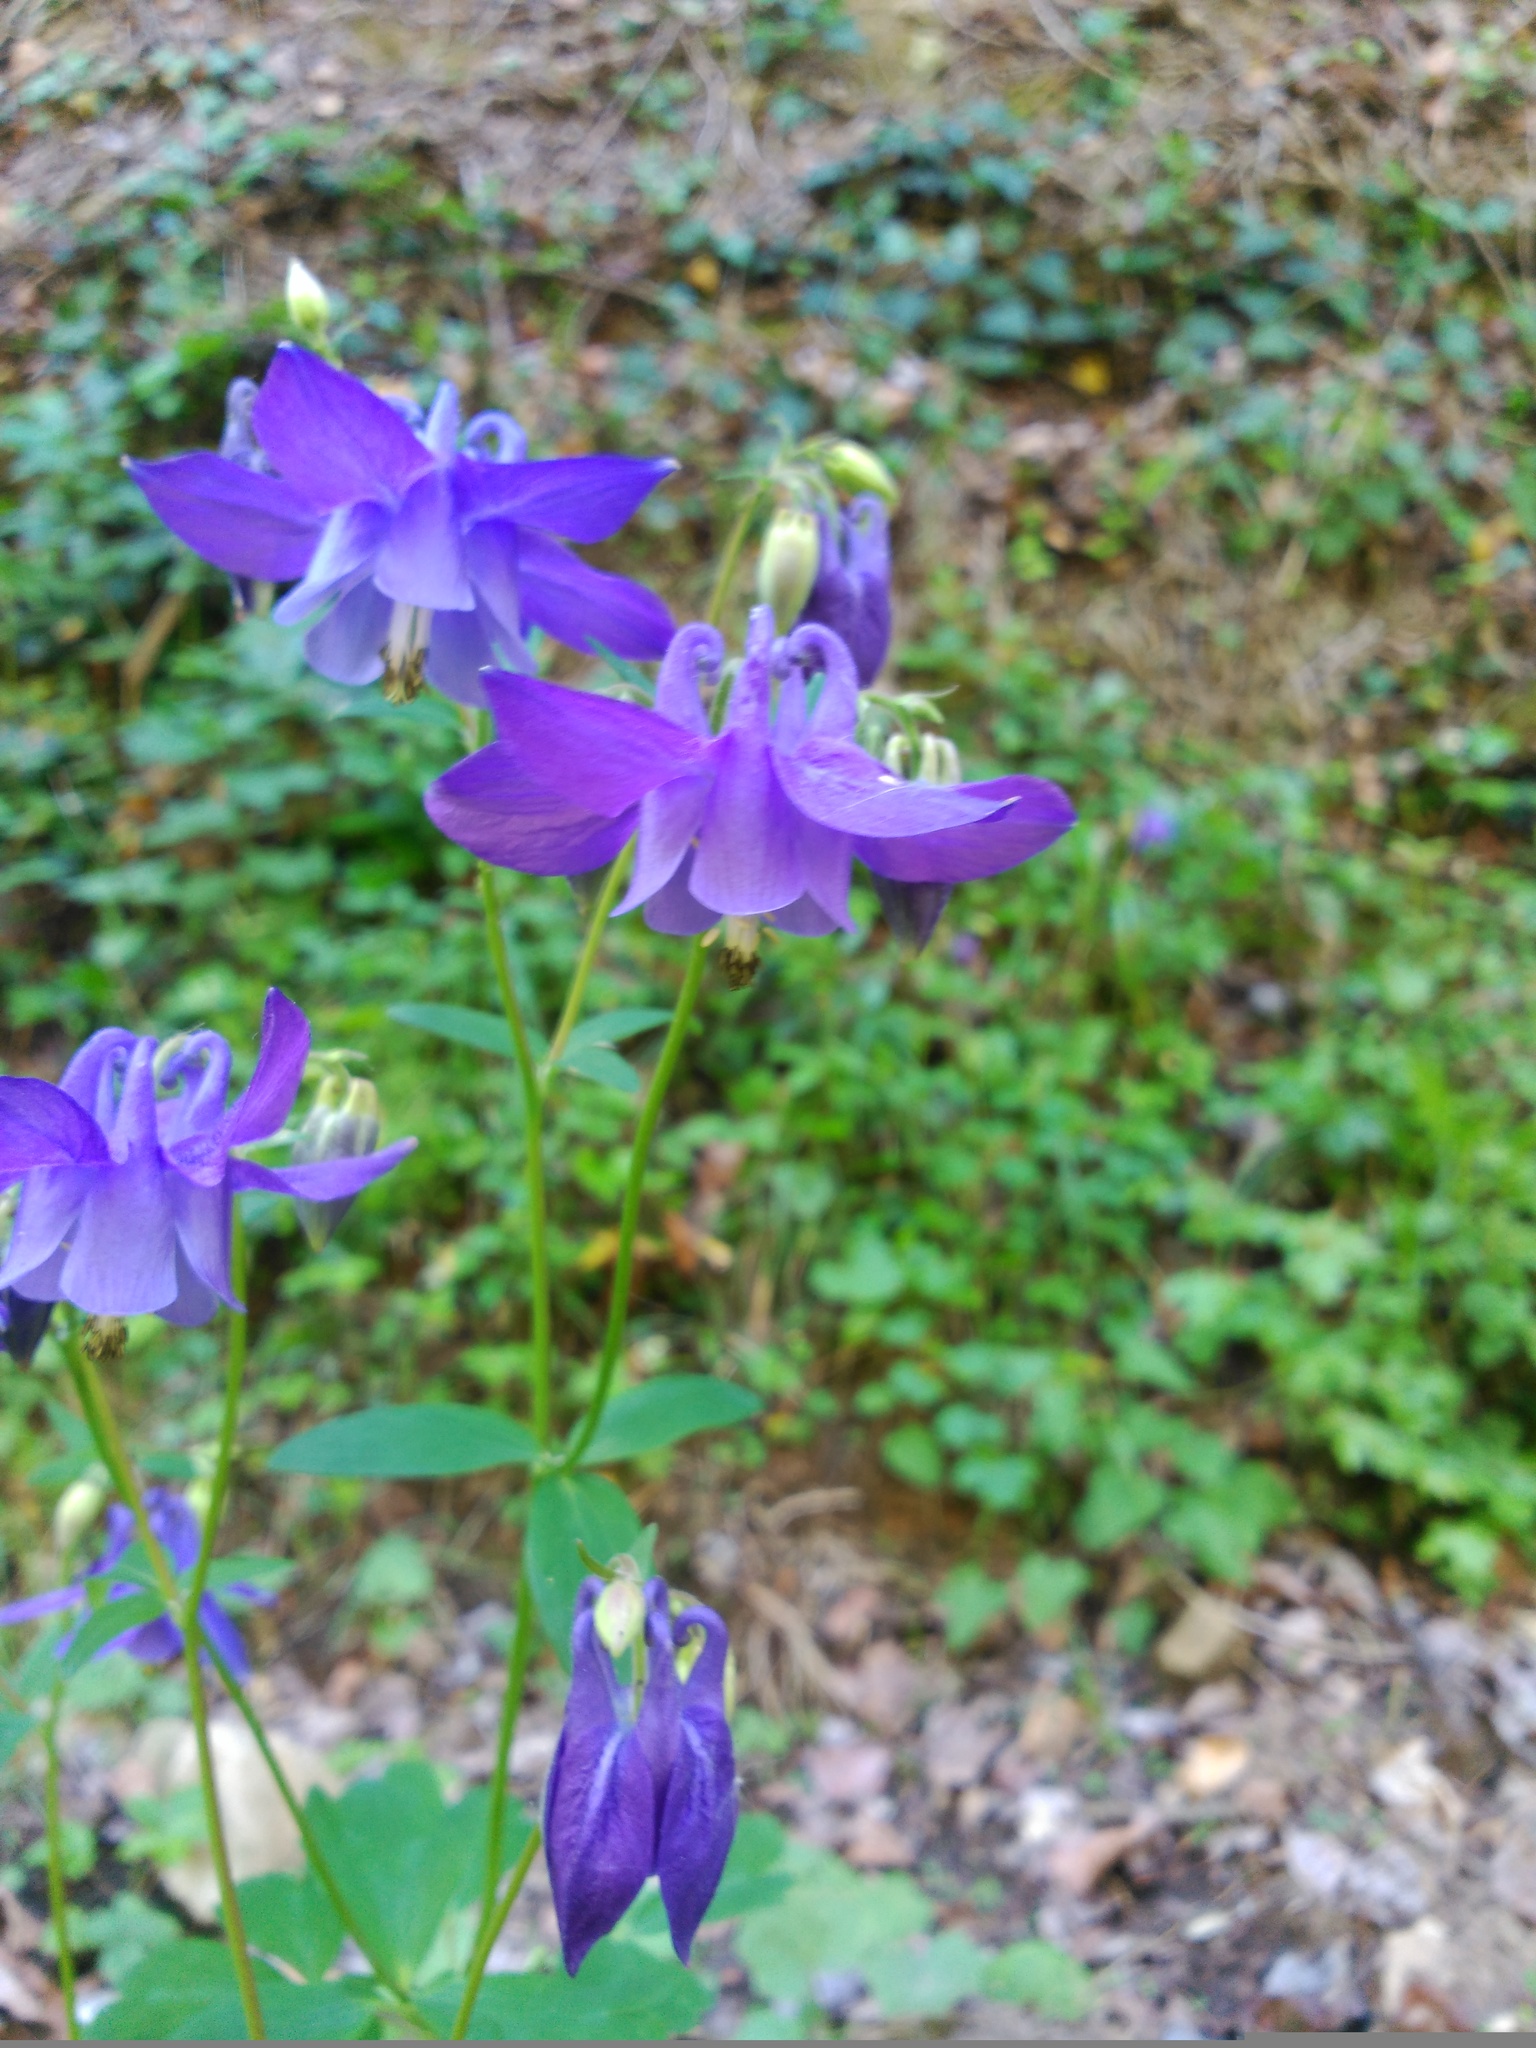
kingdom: Plantae
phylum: Tracheophyta
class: Magnoliopsida
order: Ranunculales
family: Ranunculaceae
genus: Aquilegia
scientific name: Aquilegia vulgaris
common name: Columbine
